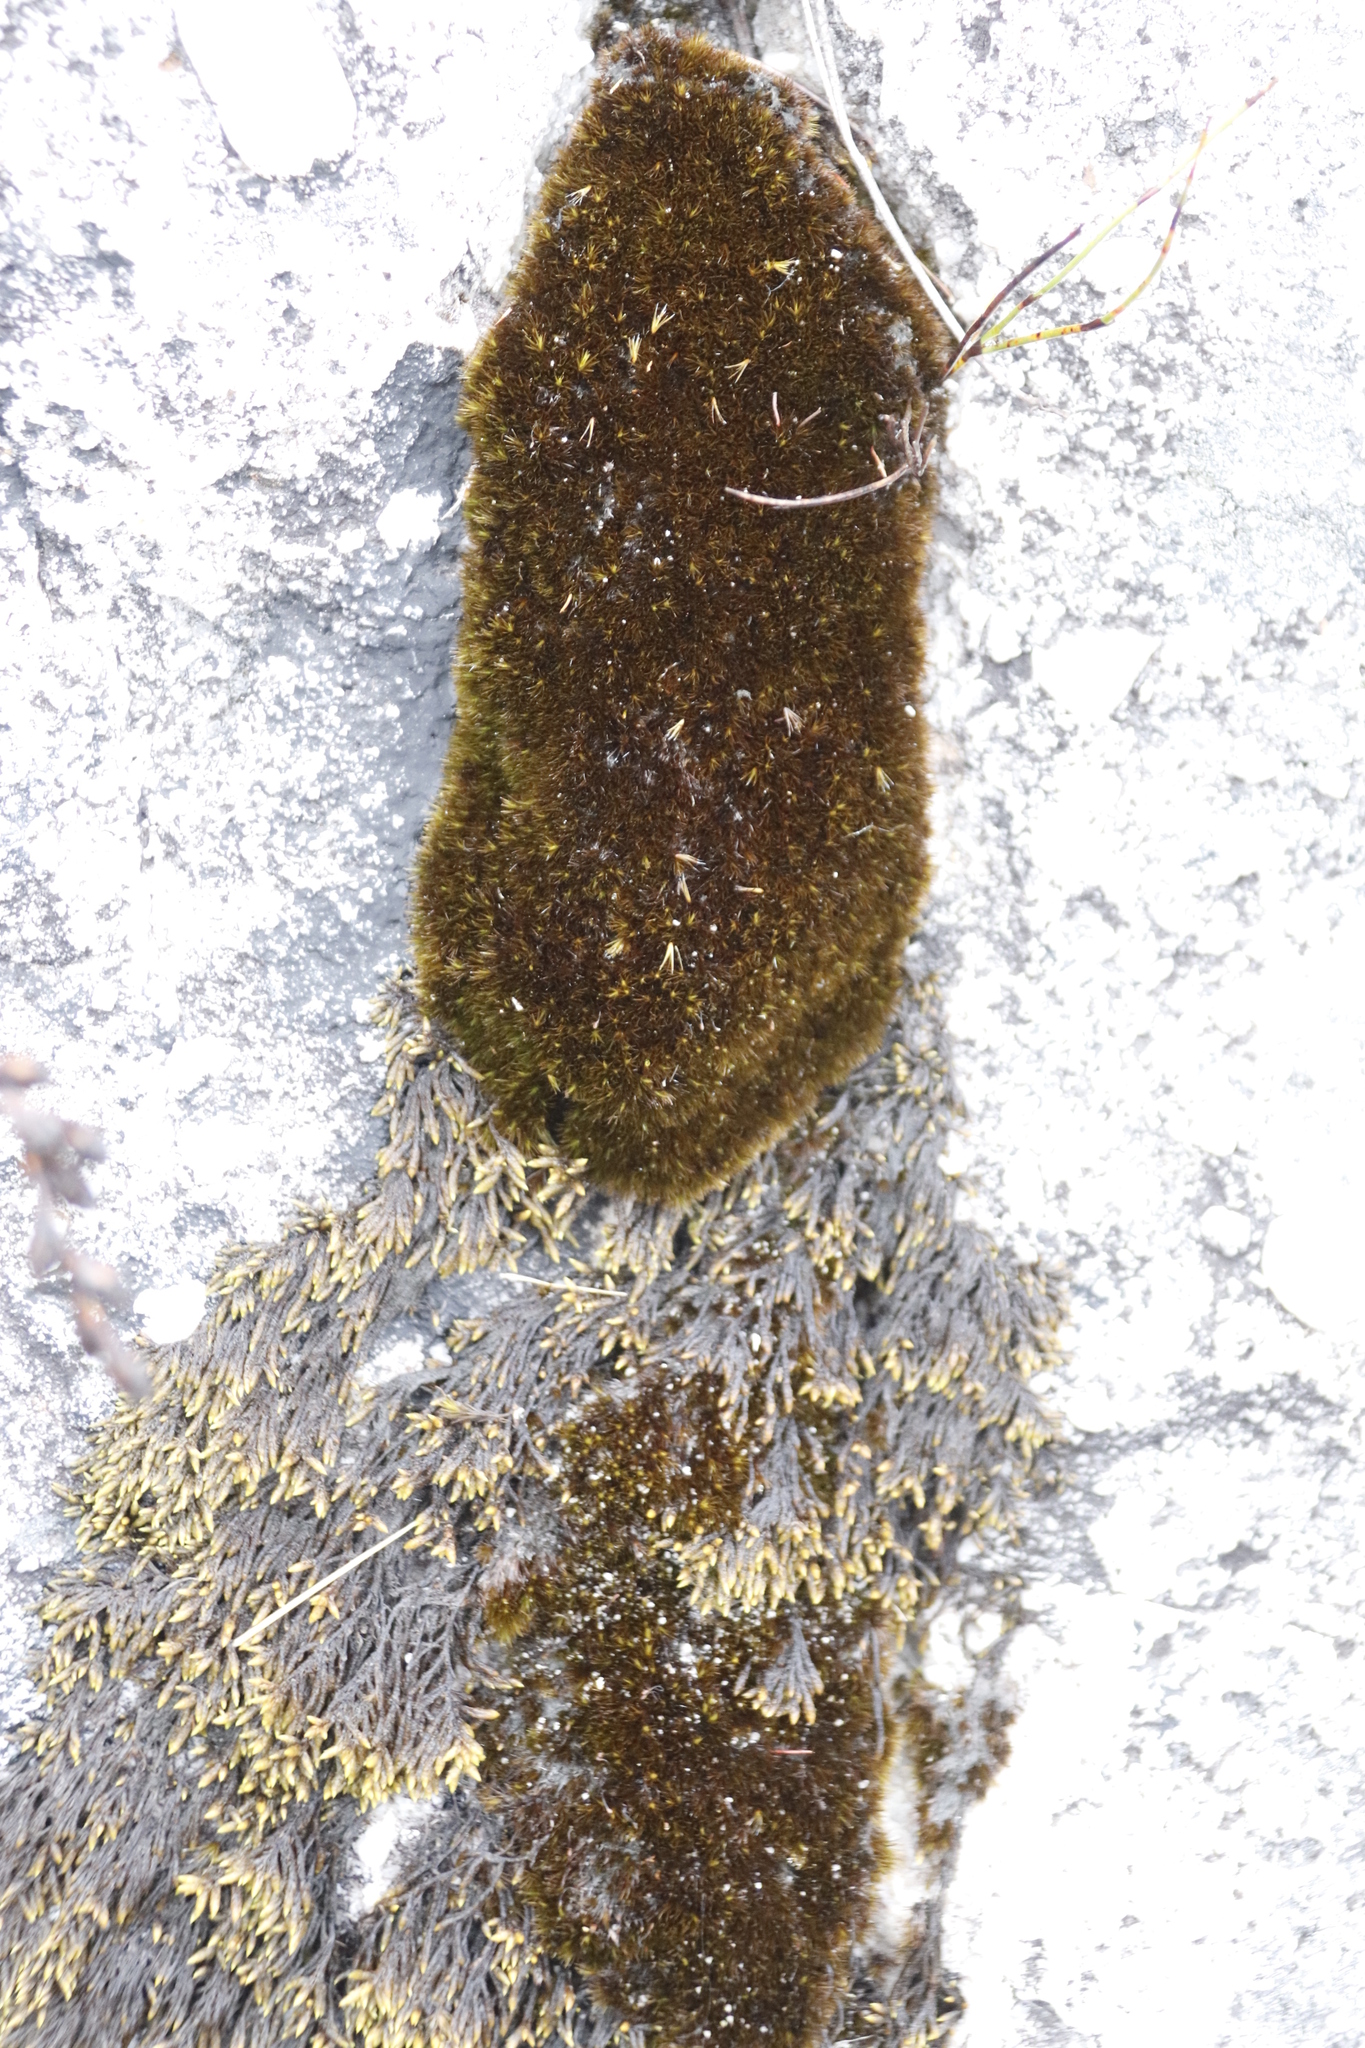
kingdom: Plantae
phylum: Bryophyta
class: Bryopsida
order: Hedwigiales
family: Hedwigiaceae
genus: Rhacocarpus
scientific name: Rhacocarpus purpurascens
